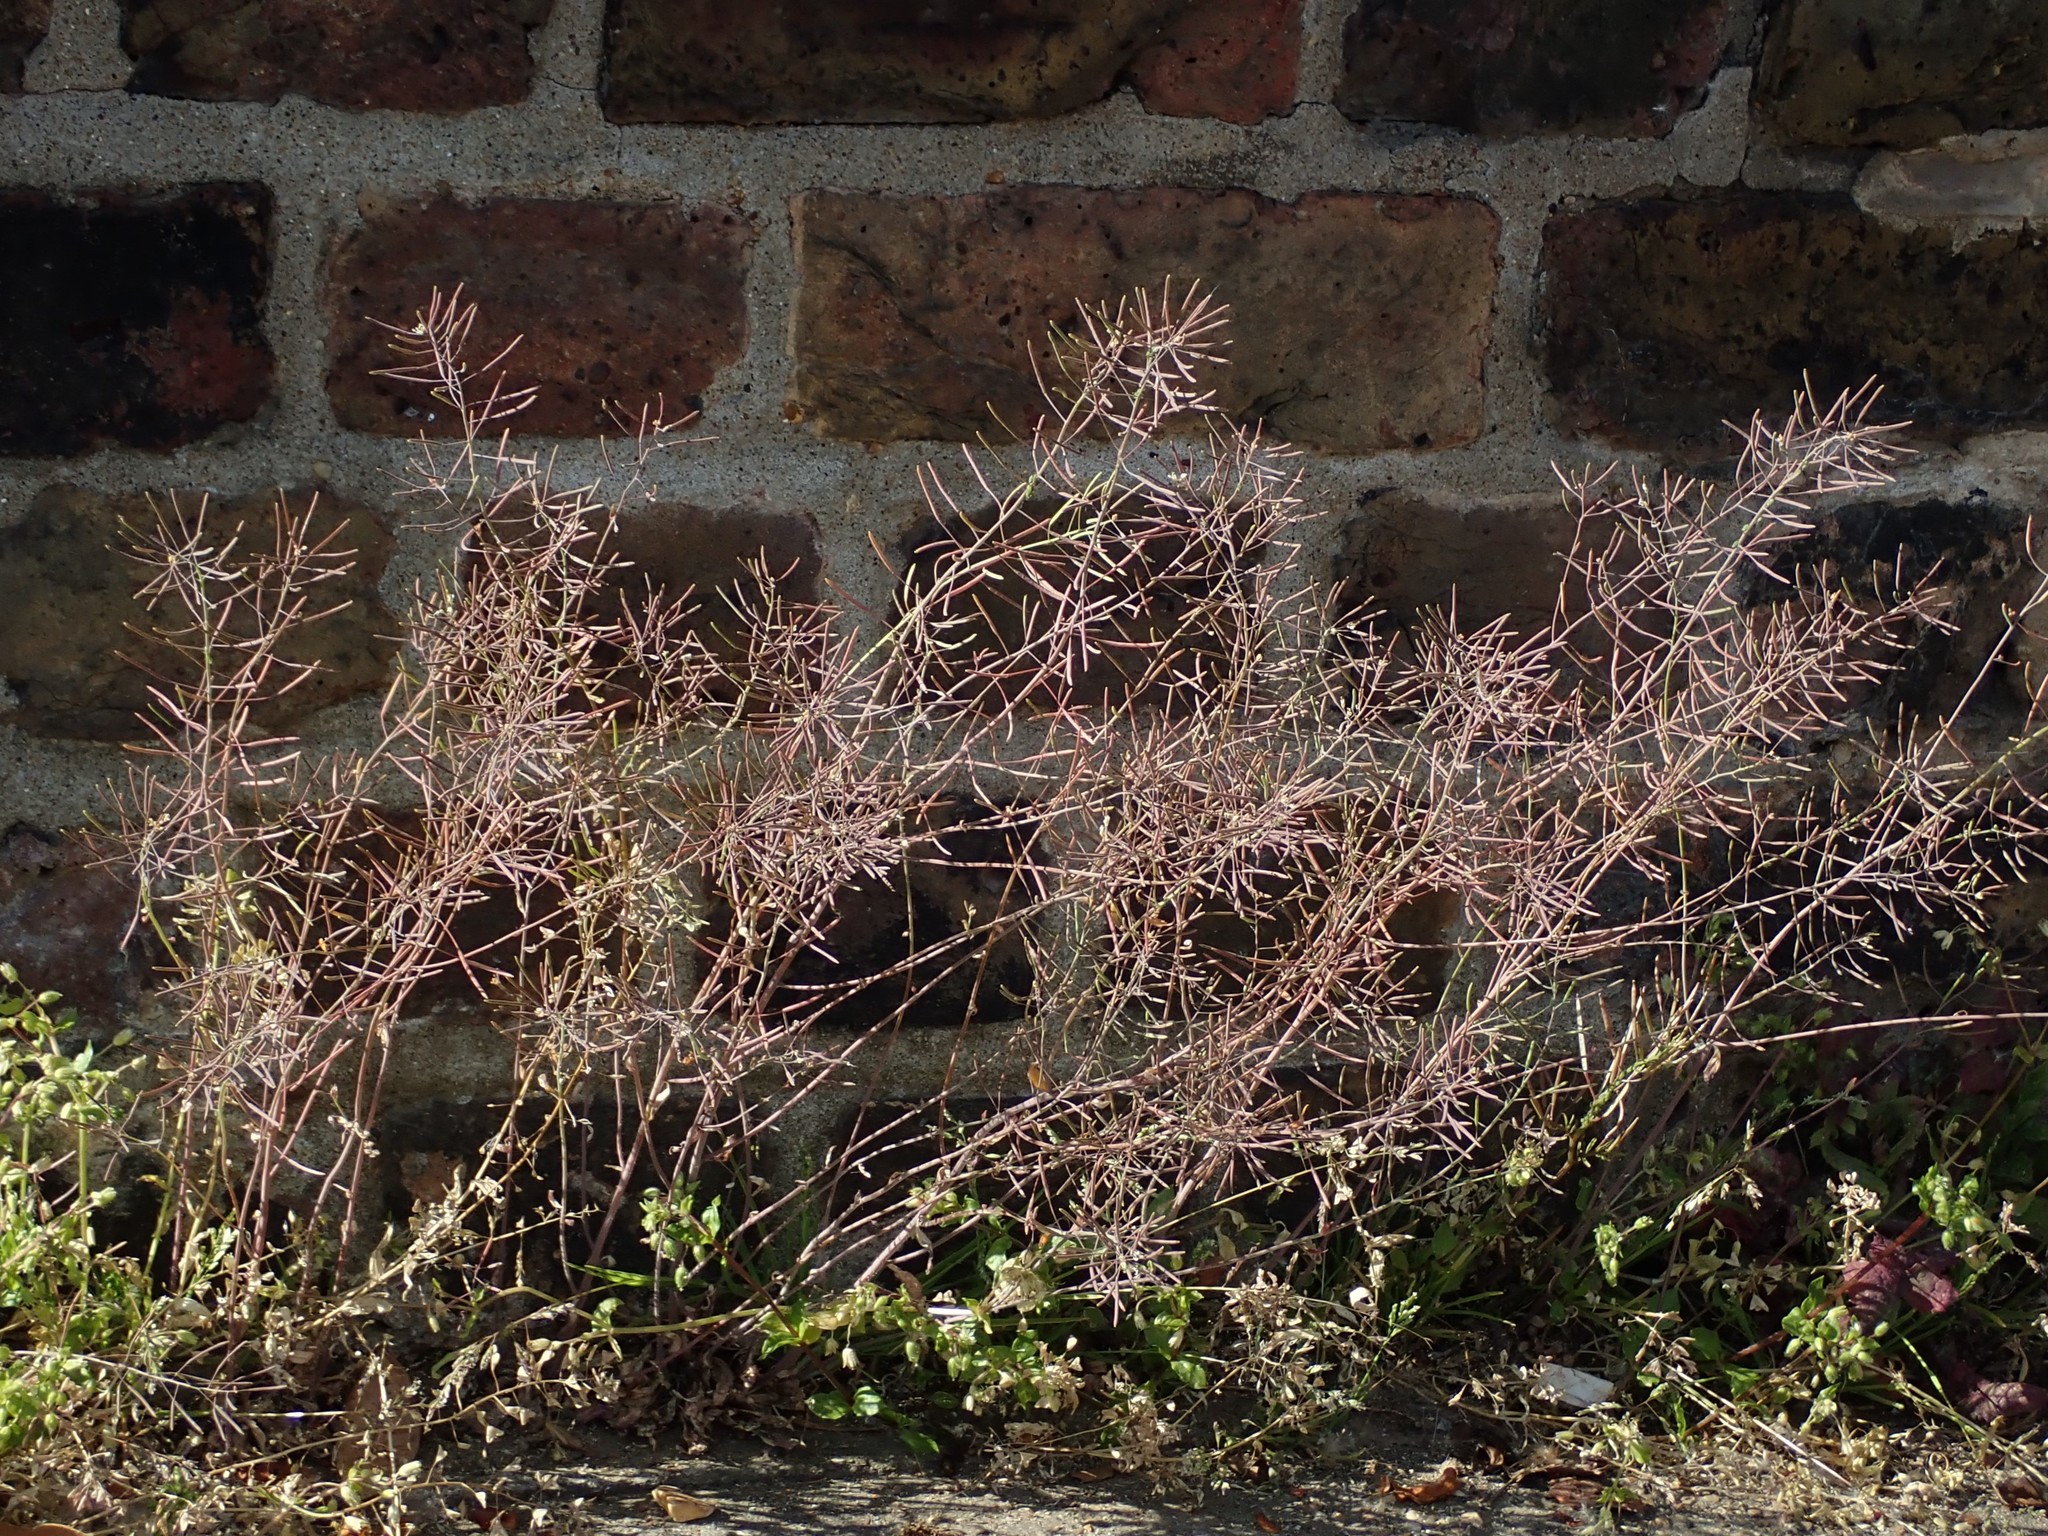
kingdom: Plantae
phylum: Tracheophyta
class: Magnoliopsida
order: Brassicales
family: Brassicaceae
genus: Arabidopsis
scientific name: Arabidopsis thaliana
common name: Thale cress
